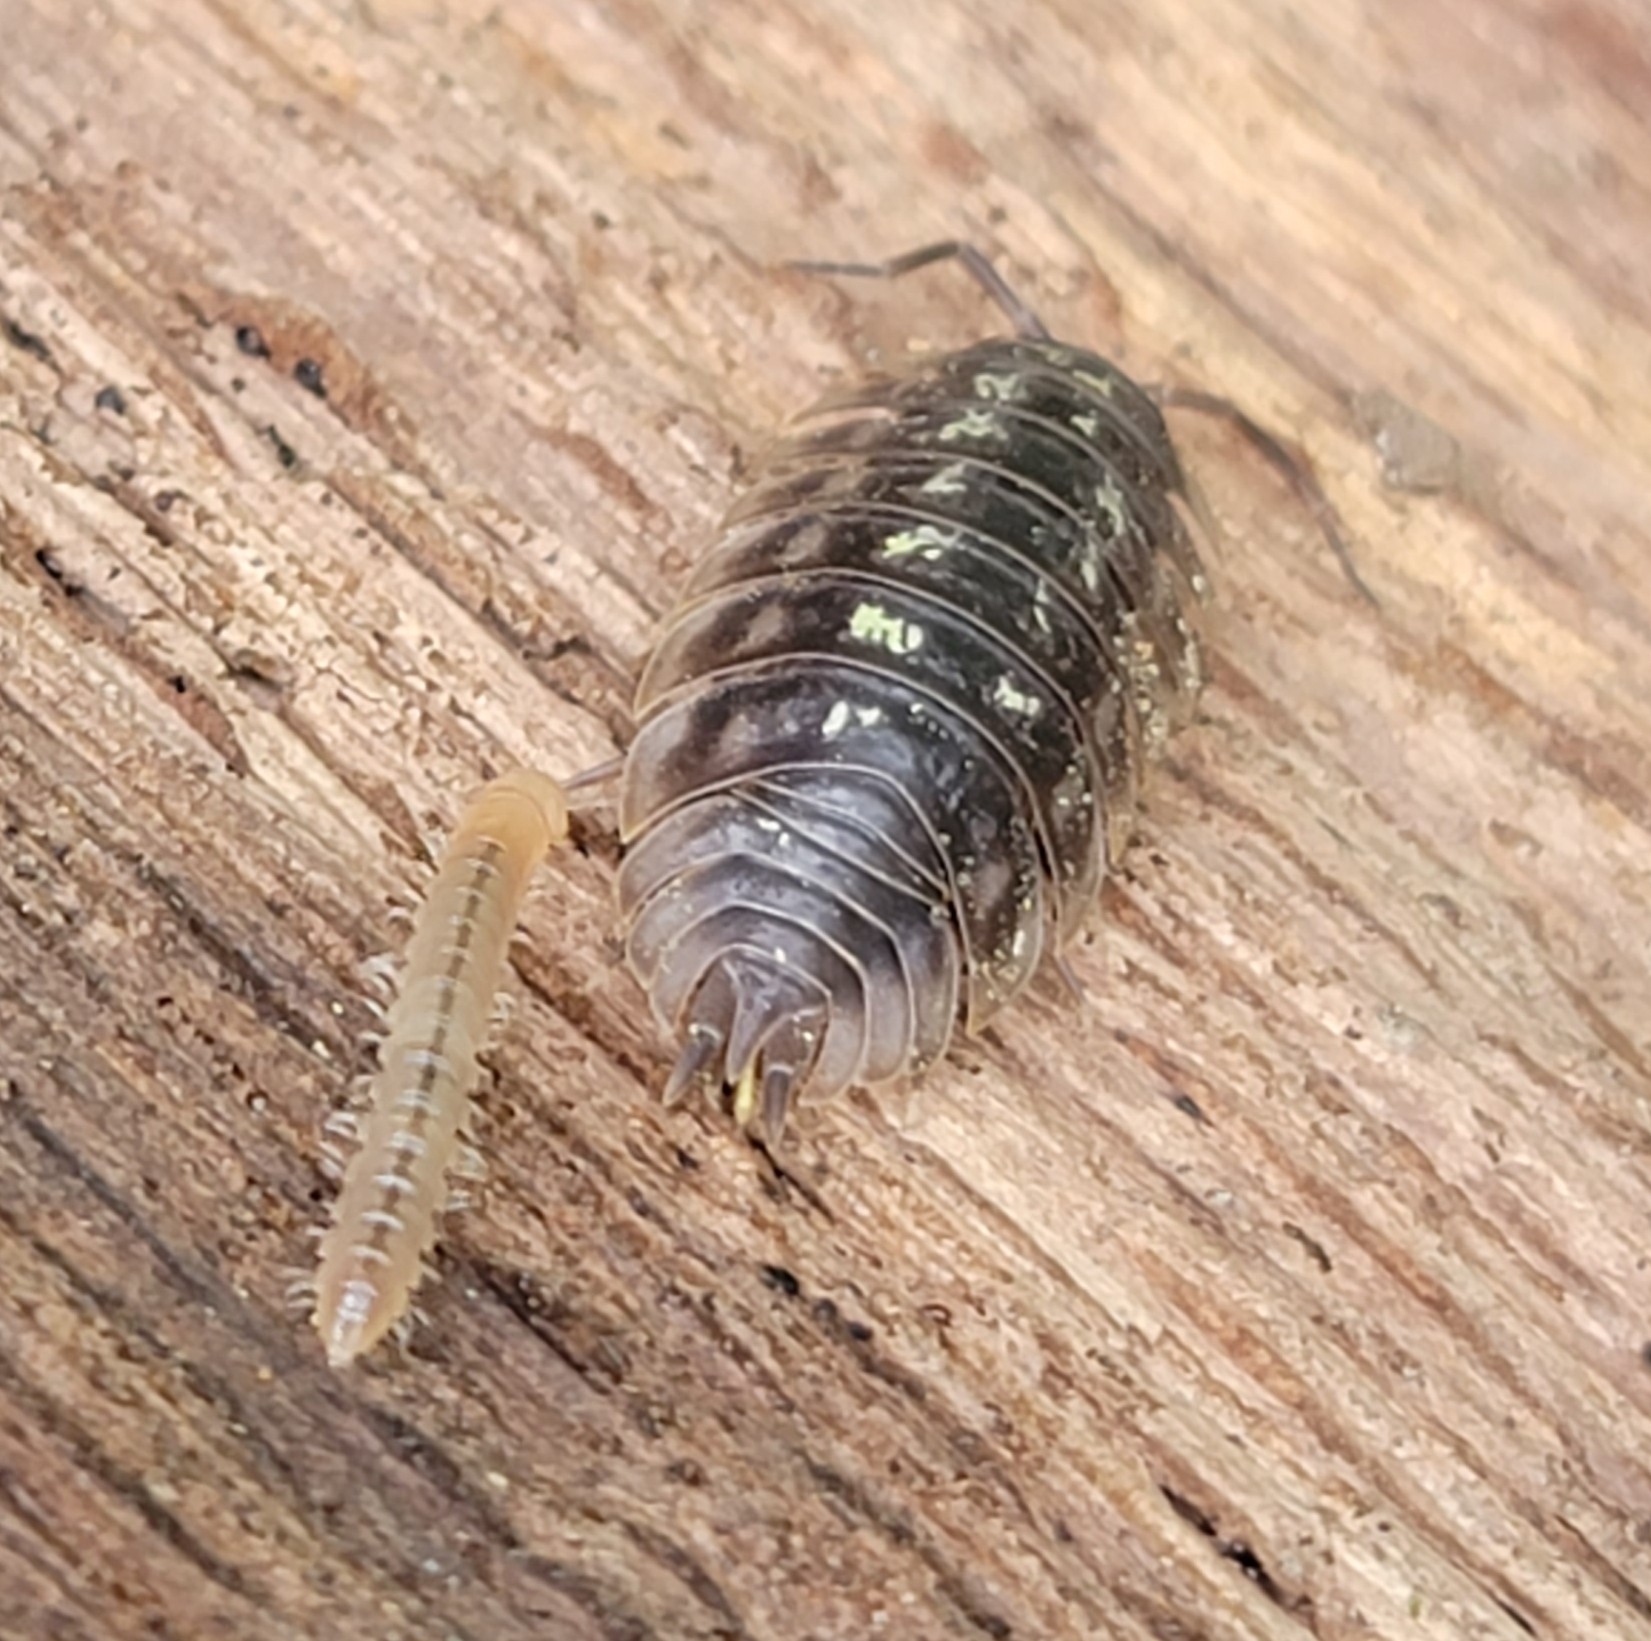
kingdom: Animalia
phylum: Arthropoda
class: Malacostraca
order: Isopoda
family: Oniscidae
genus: Oniscus
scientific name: Oniscus asellus
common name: Common shiny woodlouse
